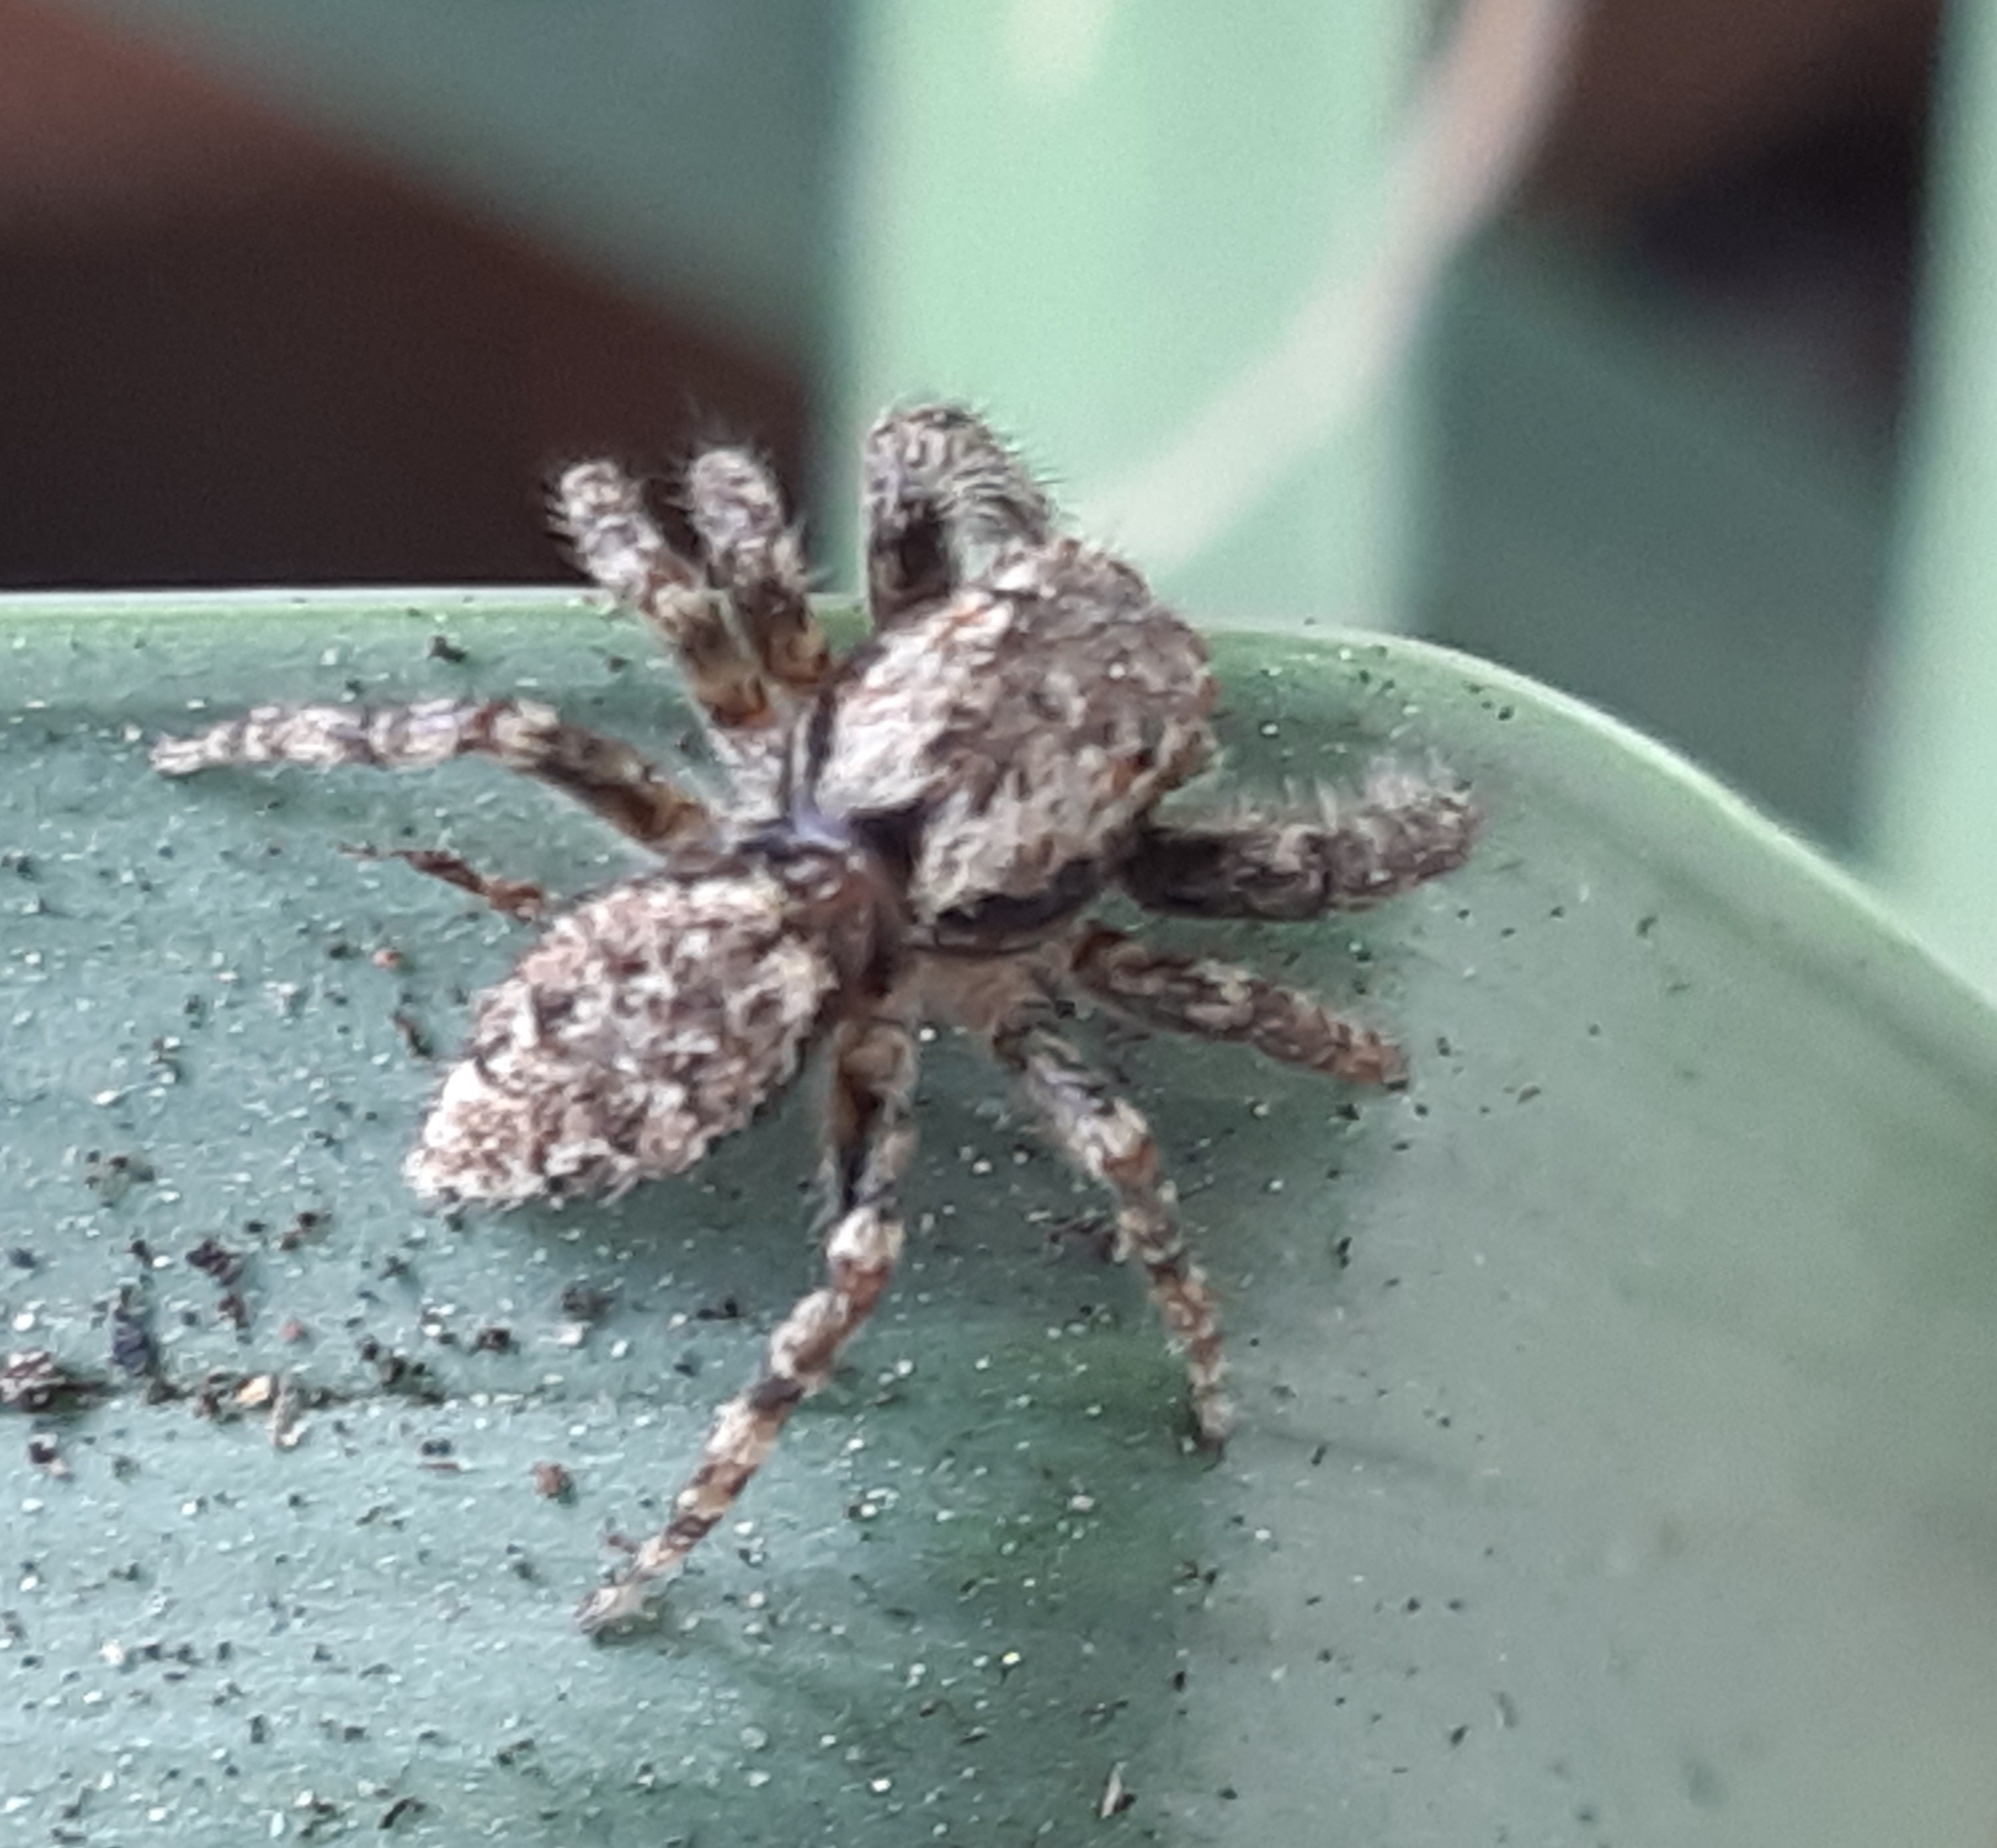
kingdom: Animalia
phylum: Arthropoda
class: Arachnida
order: Araneae
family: Salticidae
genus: Marpissa
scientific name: Marpissa muscosa
